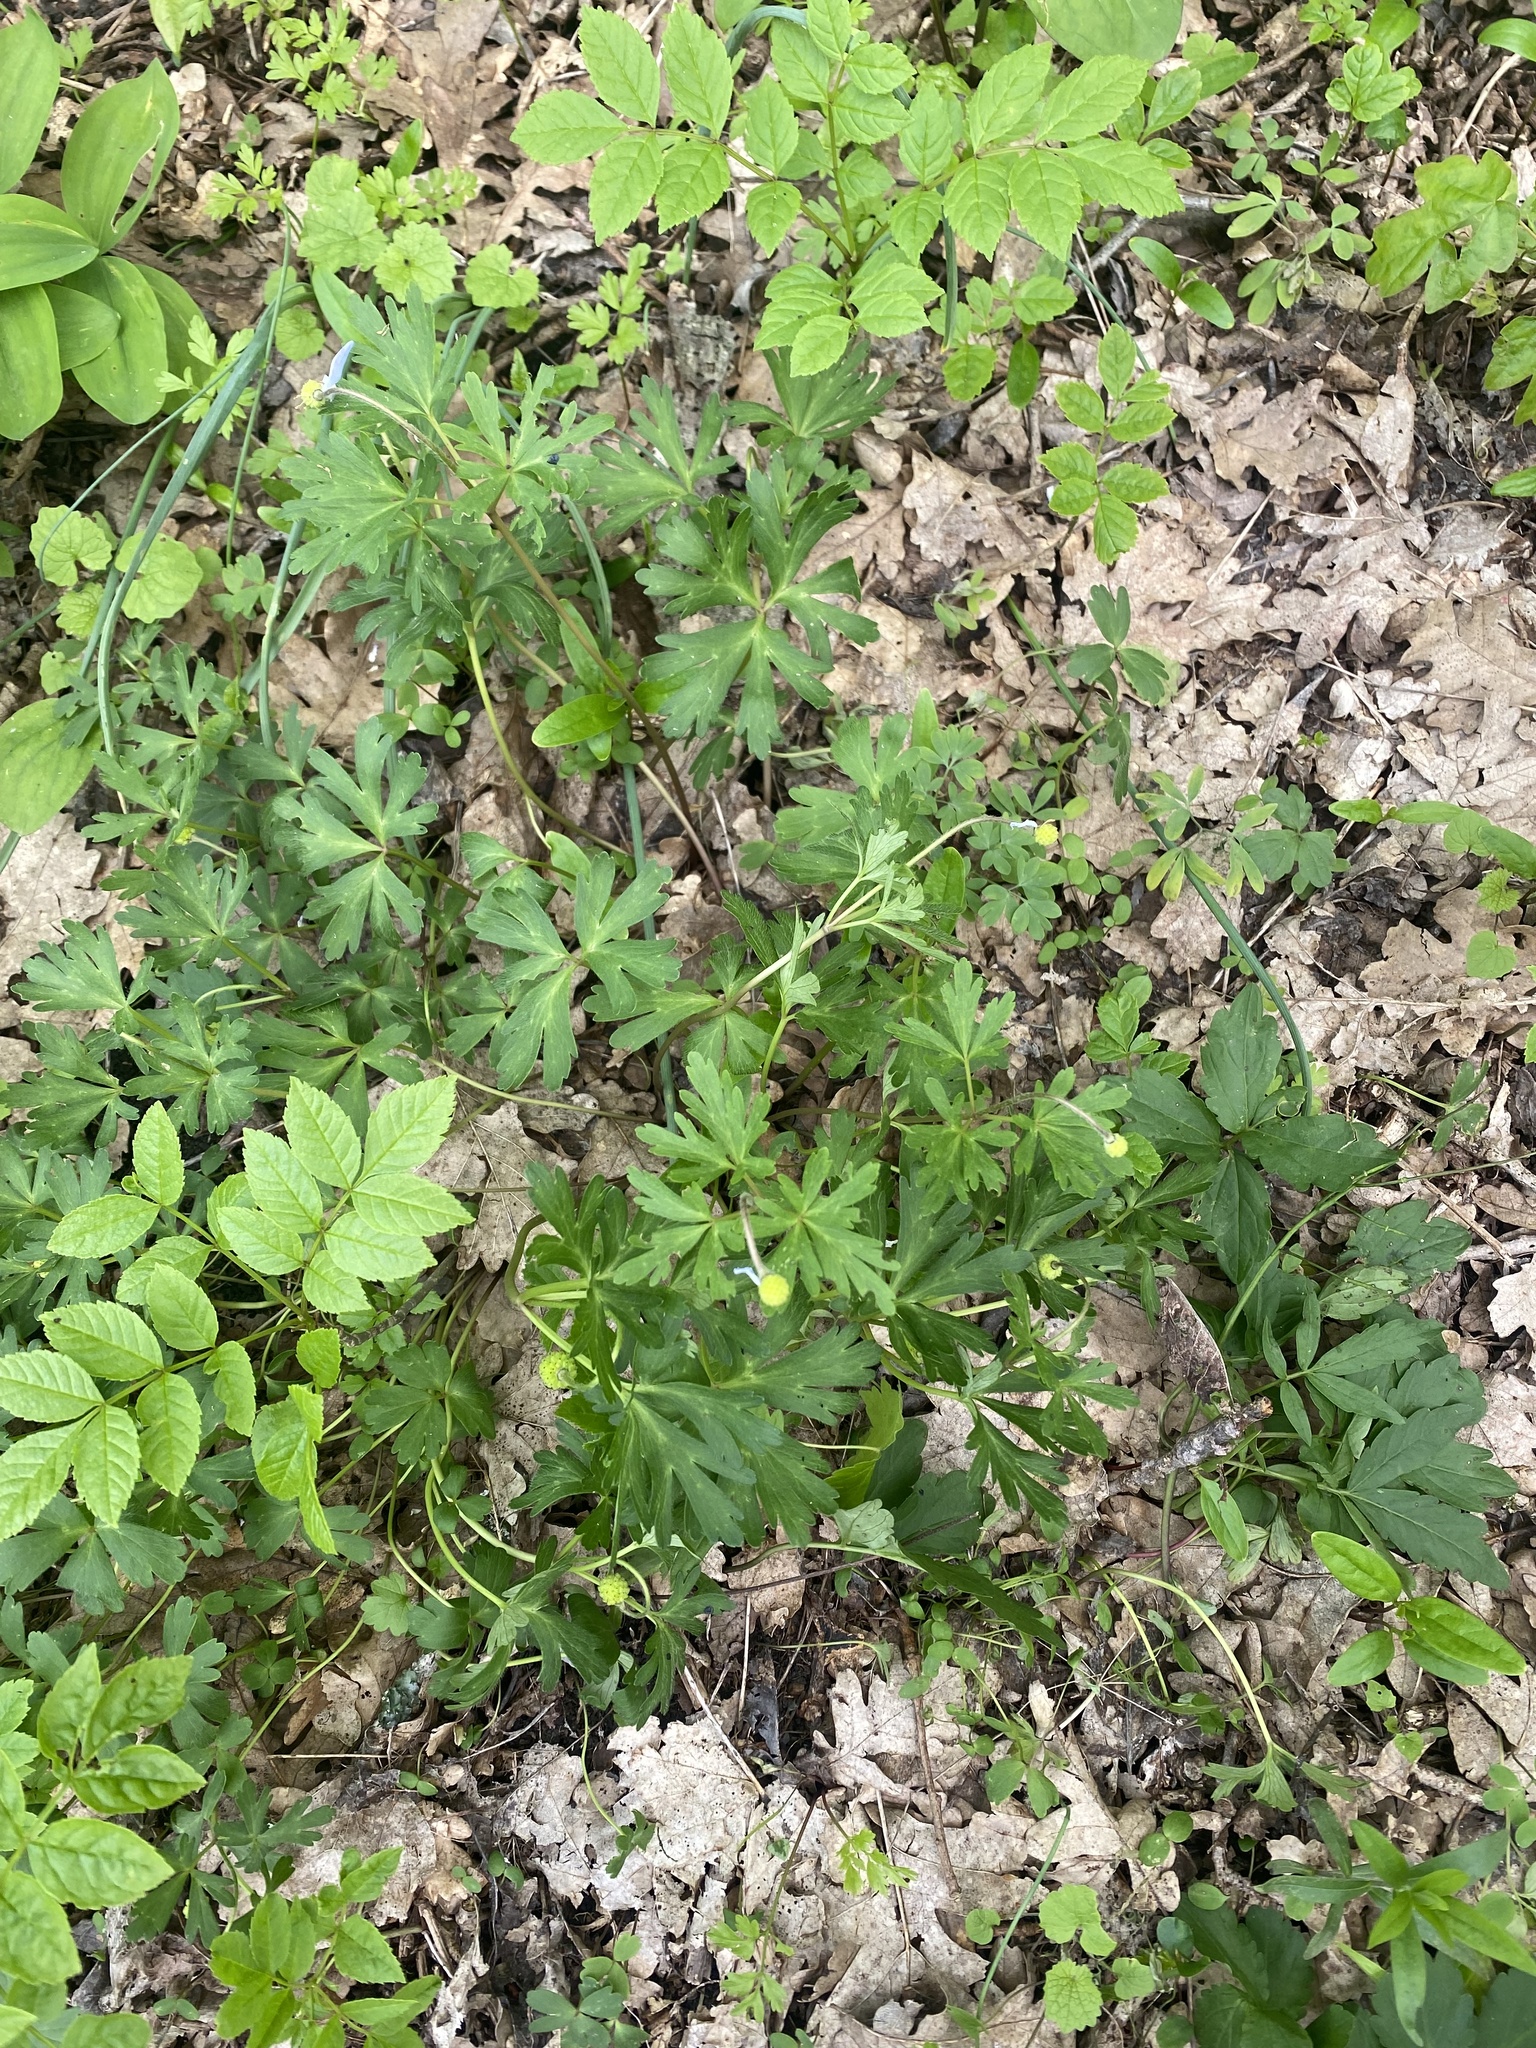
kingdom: Plantae
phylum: Tracheophyta
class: Magnoliopsida
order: Ranunculales
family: Ranunculaceae
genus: Anemone
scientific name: Anemone blanda
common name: Balkan anemone
